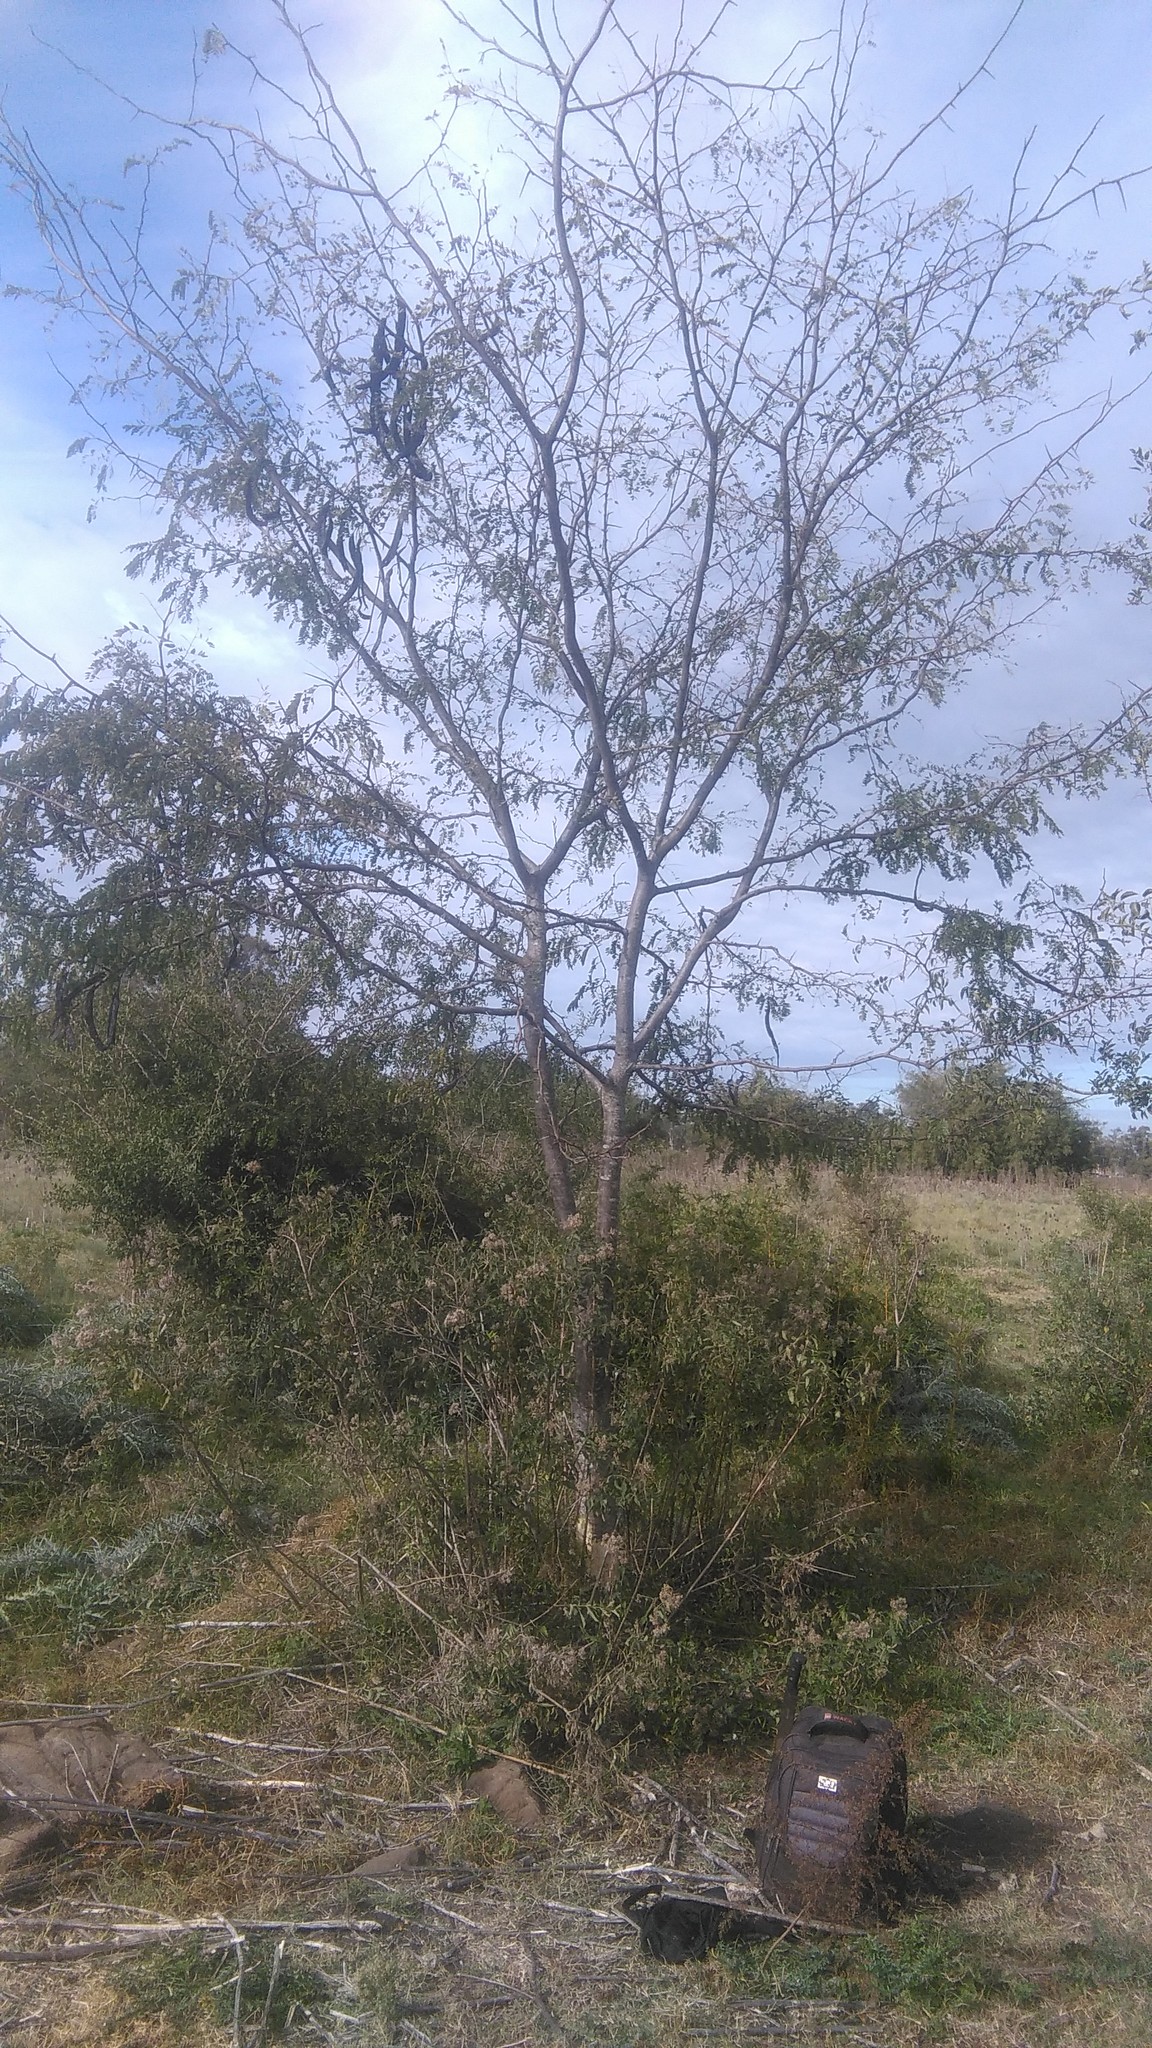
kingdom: Plantae
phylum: Tracheophyta
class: Magnoliopsida
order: Fabales
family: Fabaceae
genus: Gleditsia
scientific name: Gleditsia triacanthos
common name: Common honeylocust
